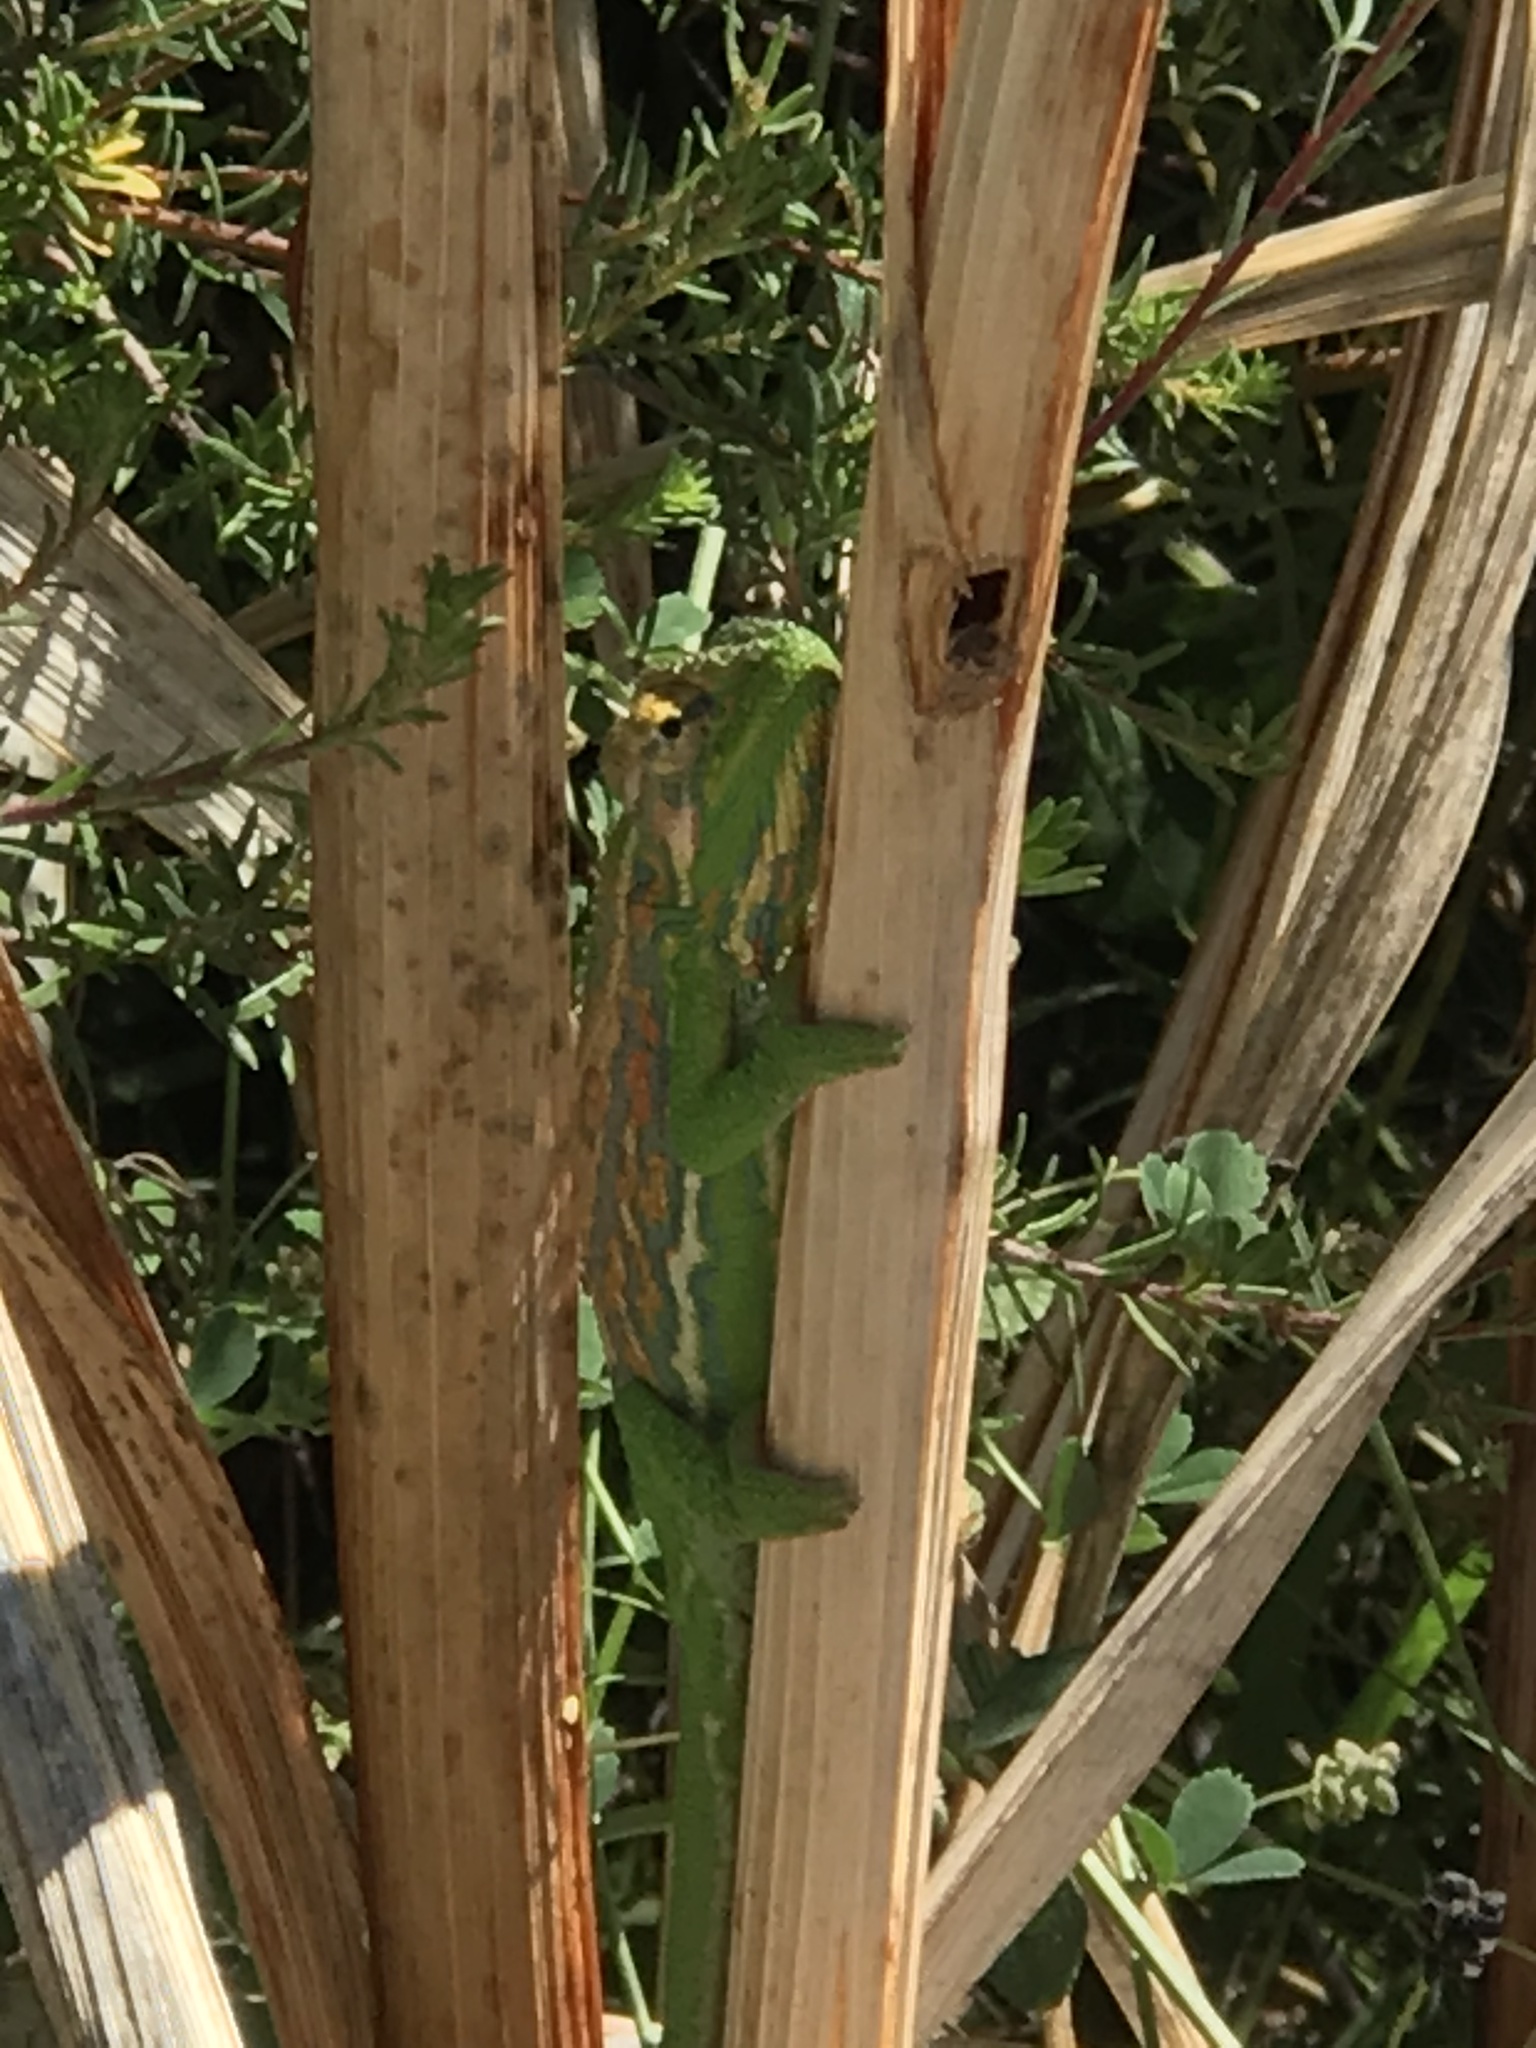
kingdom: Animalia
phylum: Chordata
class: Squamata
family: Chamaeleonidae
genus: Bradypodion
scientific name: Bradypodion pumilum
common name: Cape dwarf chameleon
